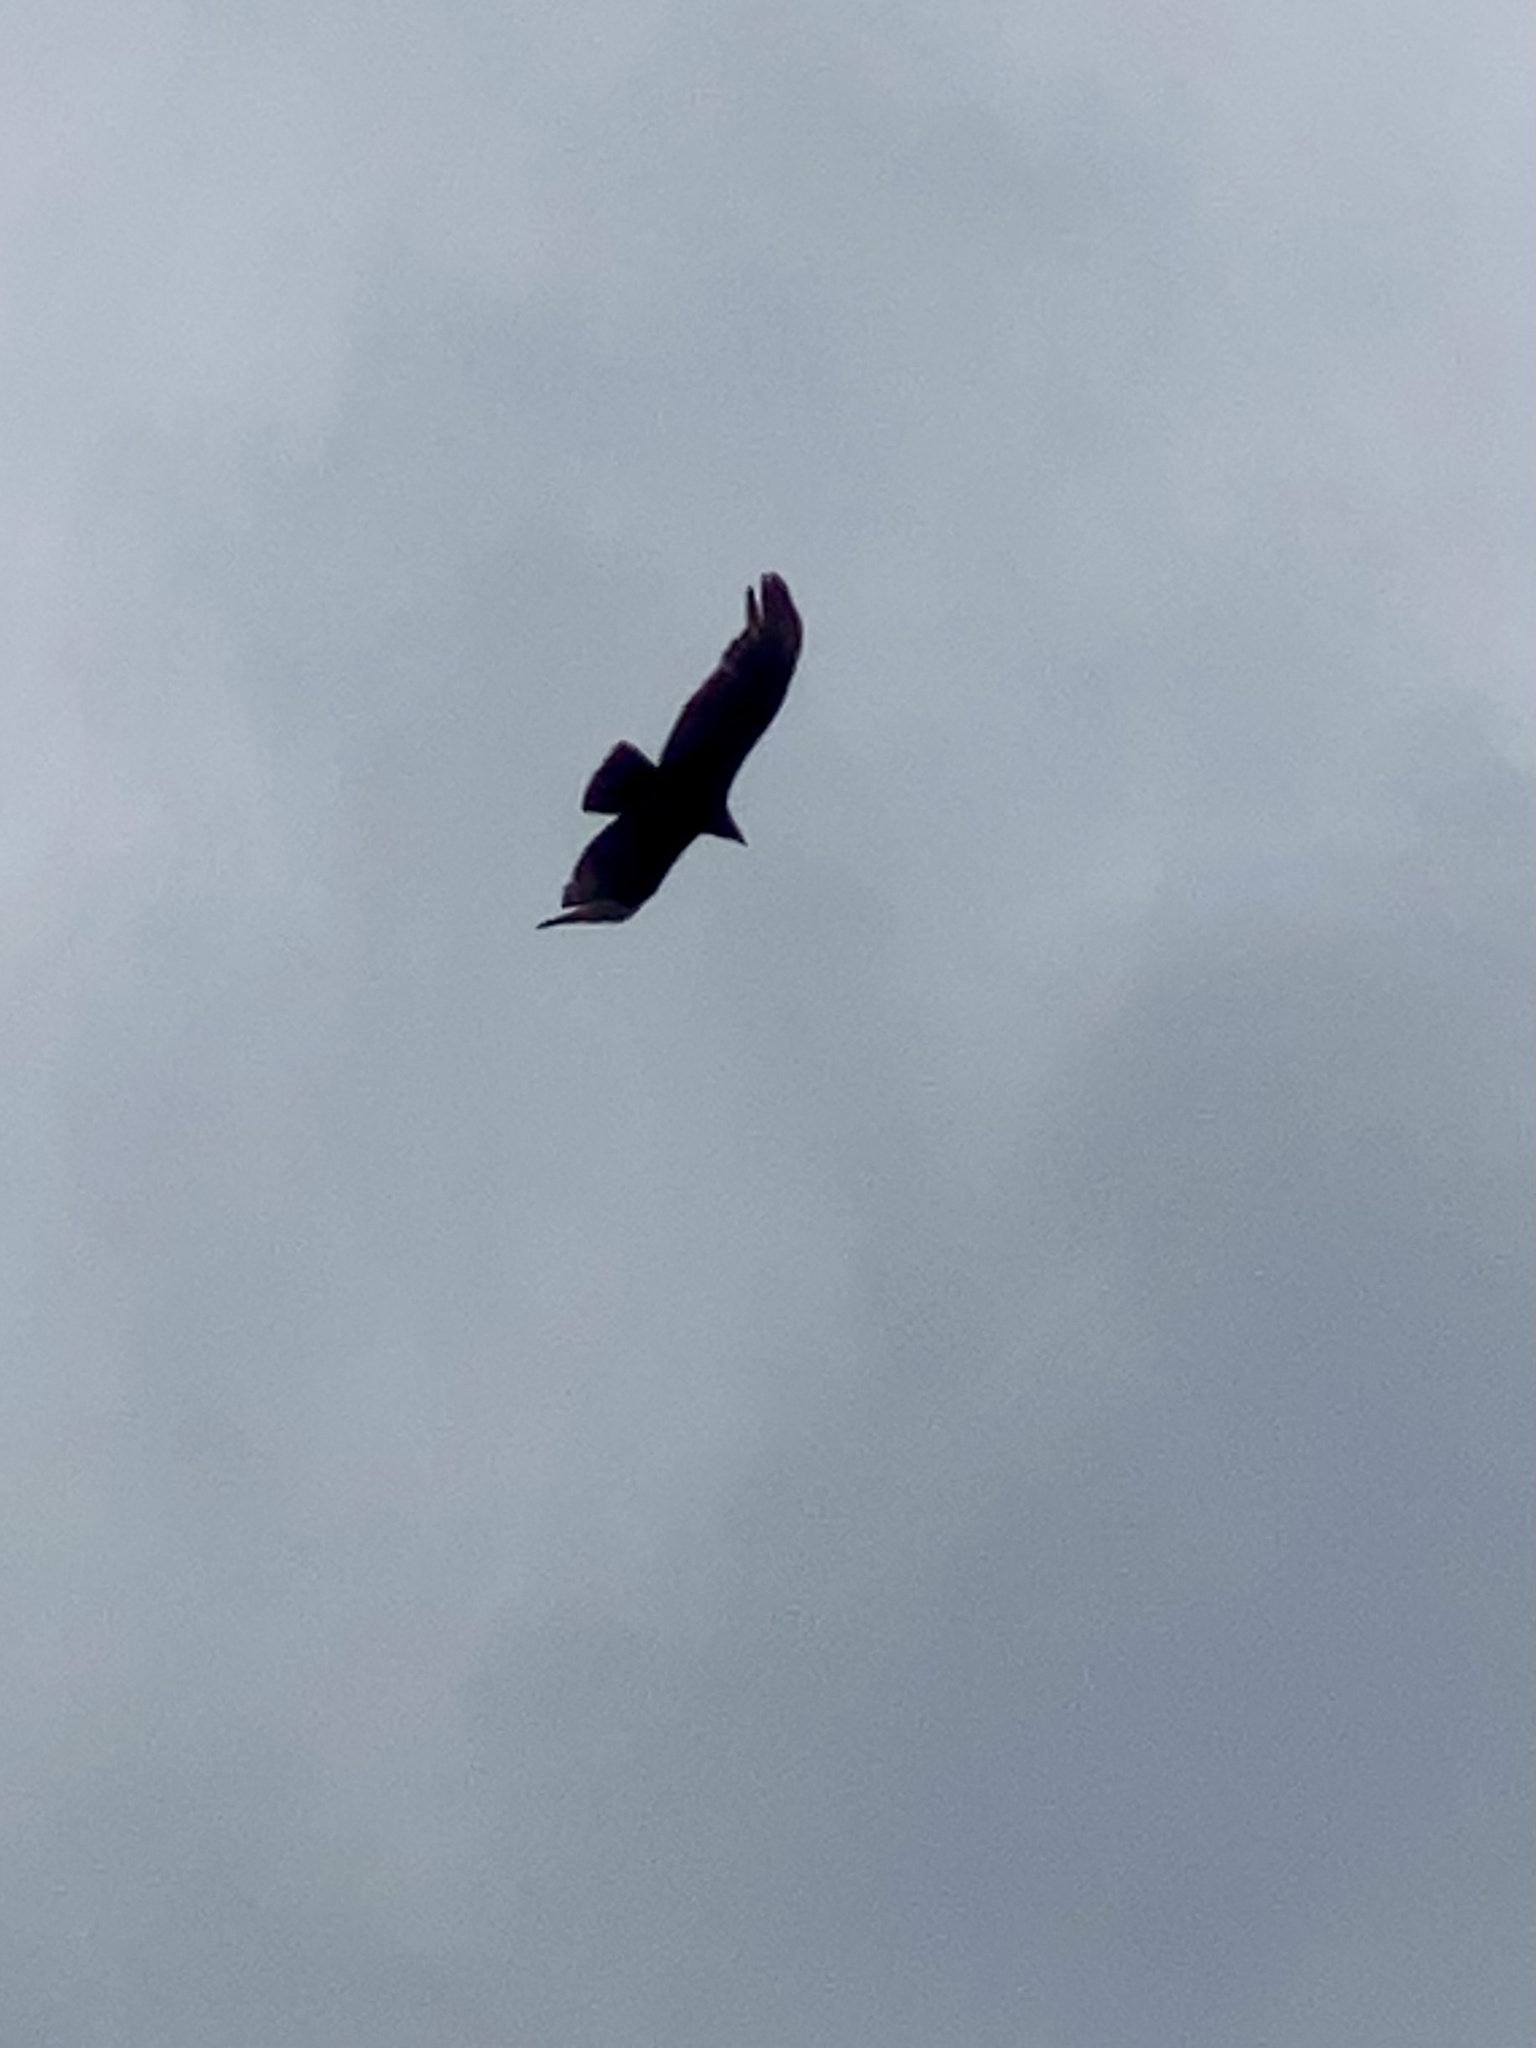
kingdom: Animalia
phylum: Chordata
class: Aves
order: Accipitriformes
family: Cathartidae
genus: Cathartes
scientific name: Cathartes aura
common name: Turkey vulture
